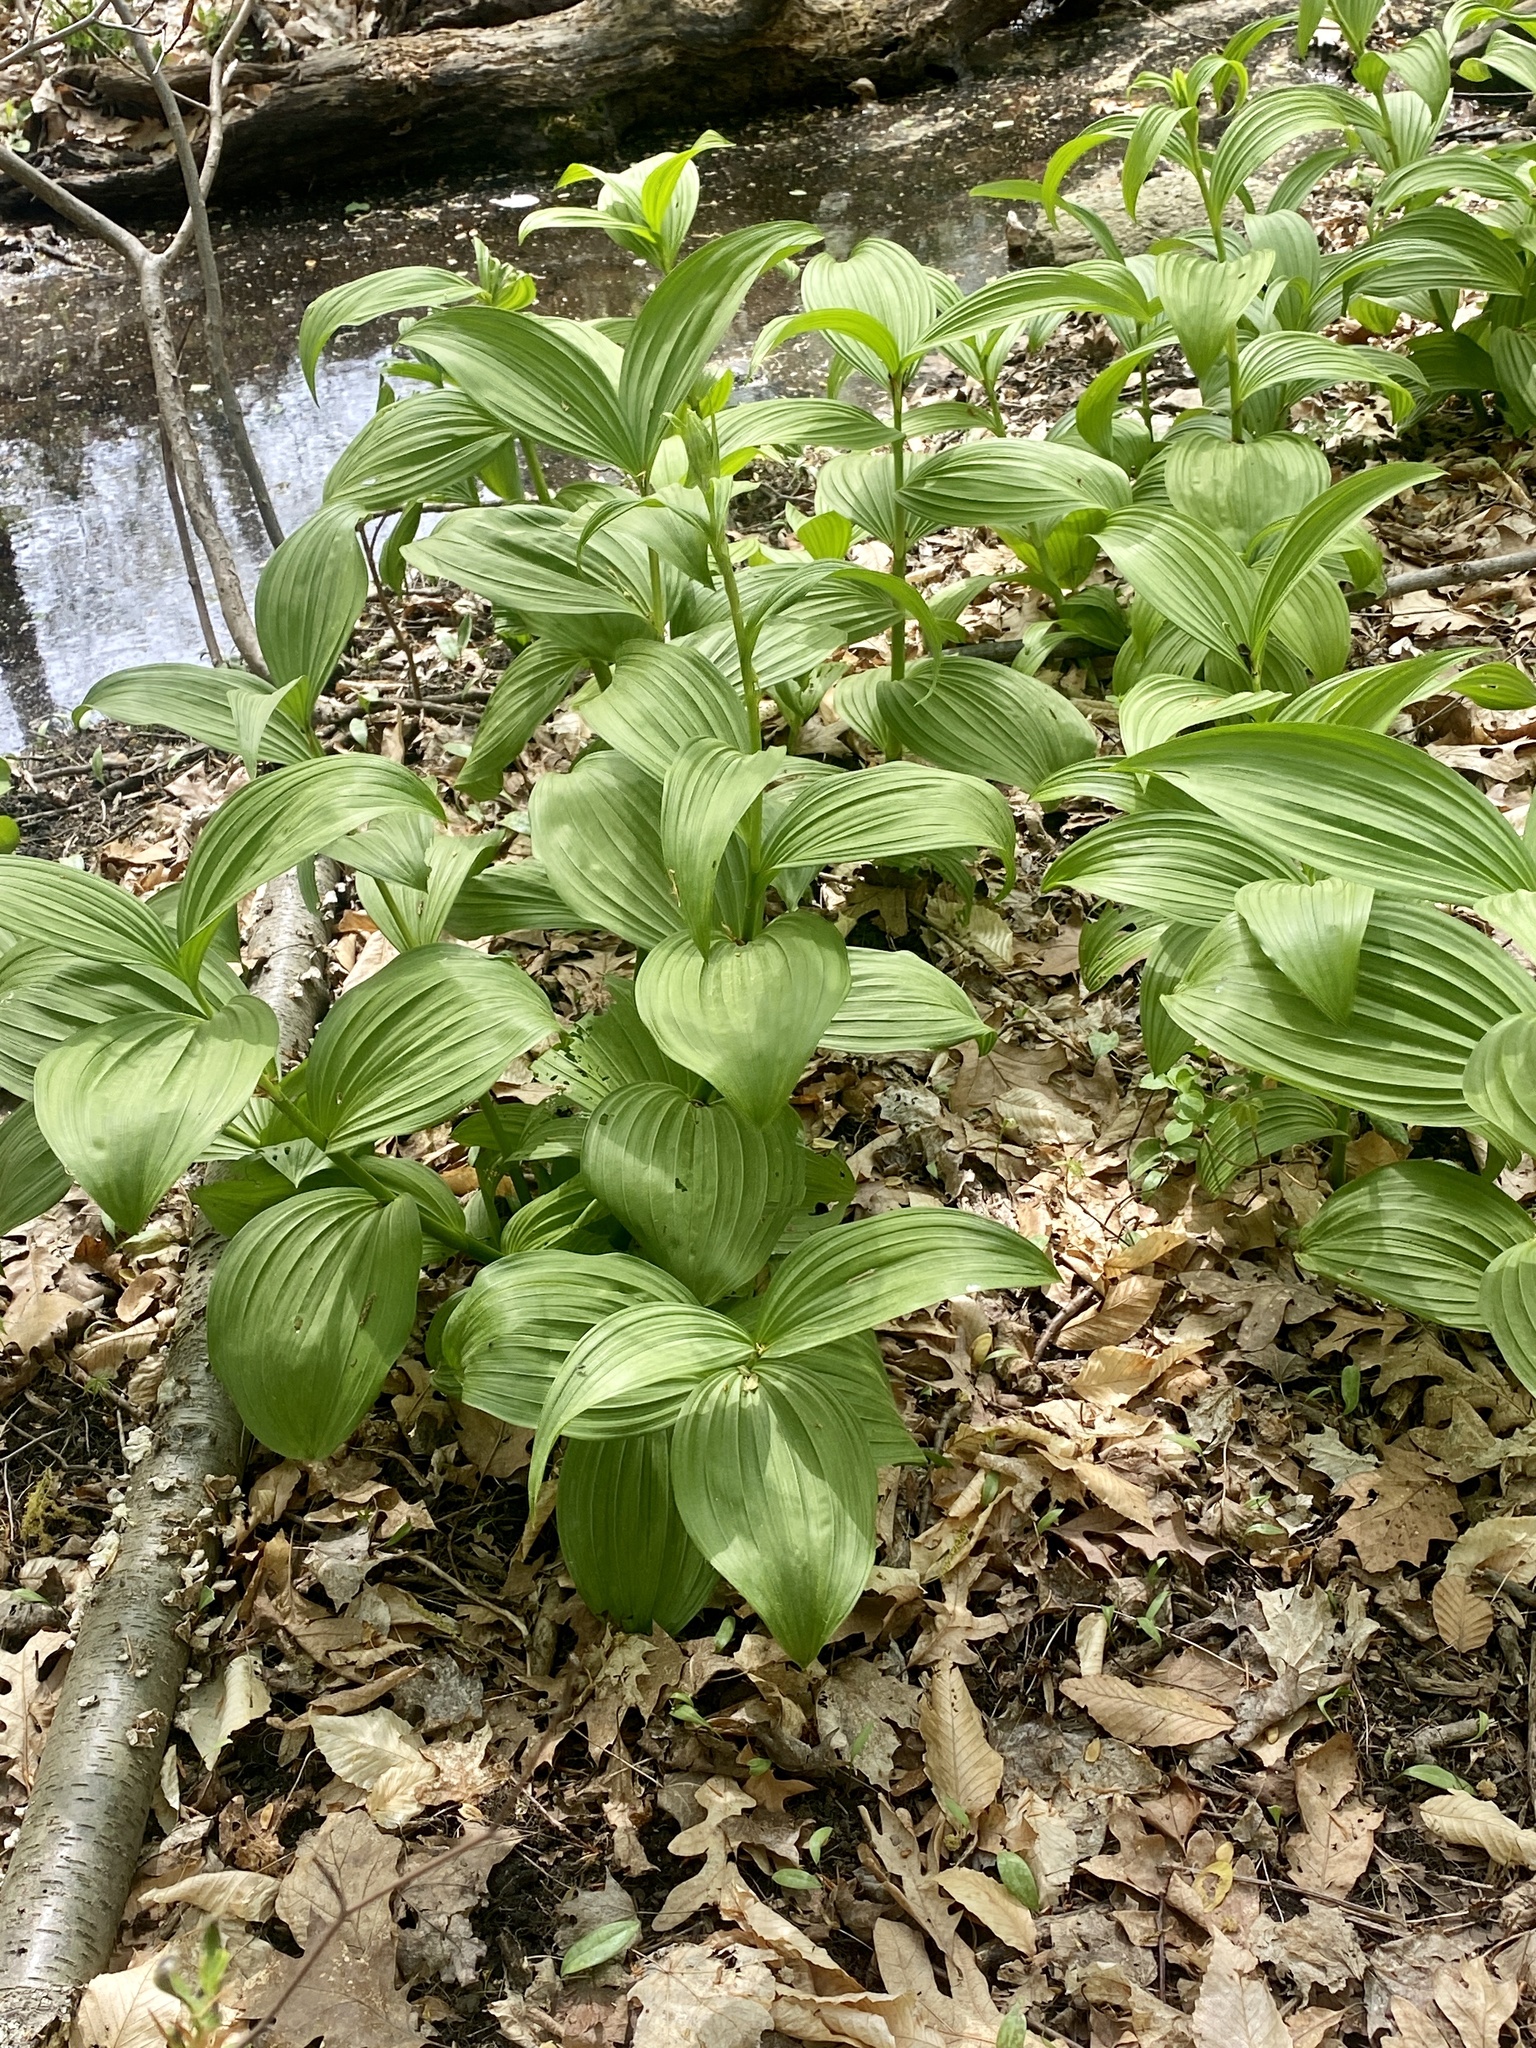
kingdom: Plantae
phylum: Tracheophyta
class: Liliopsida
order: Liliales
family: Melanthiaceae
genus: Veratrum
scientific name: Veratrum viride
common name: American false hellebore
